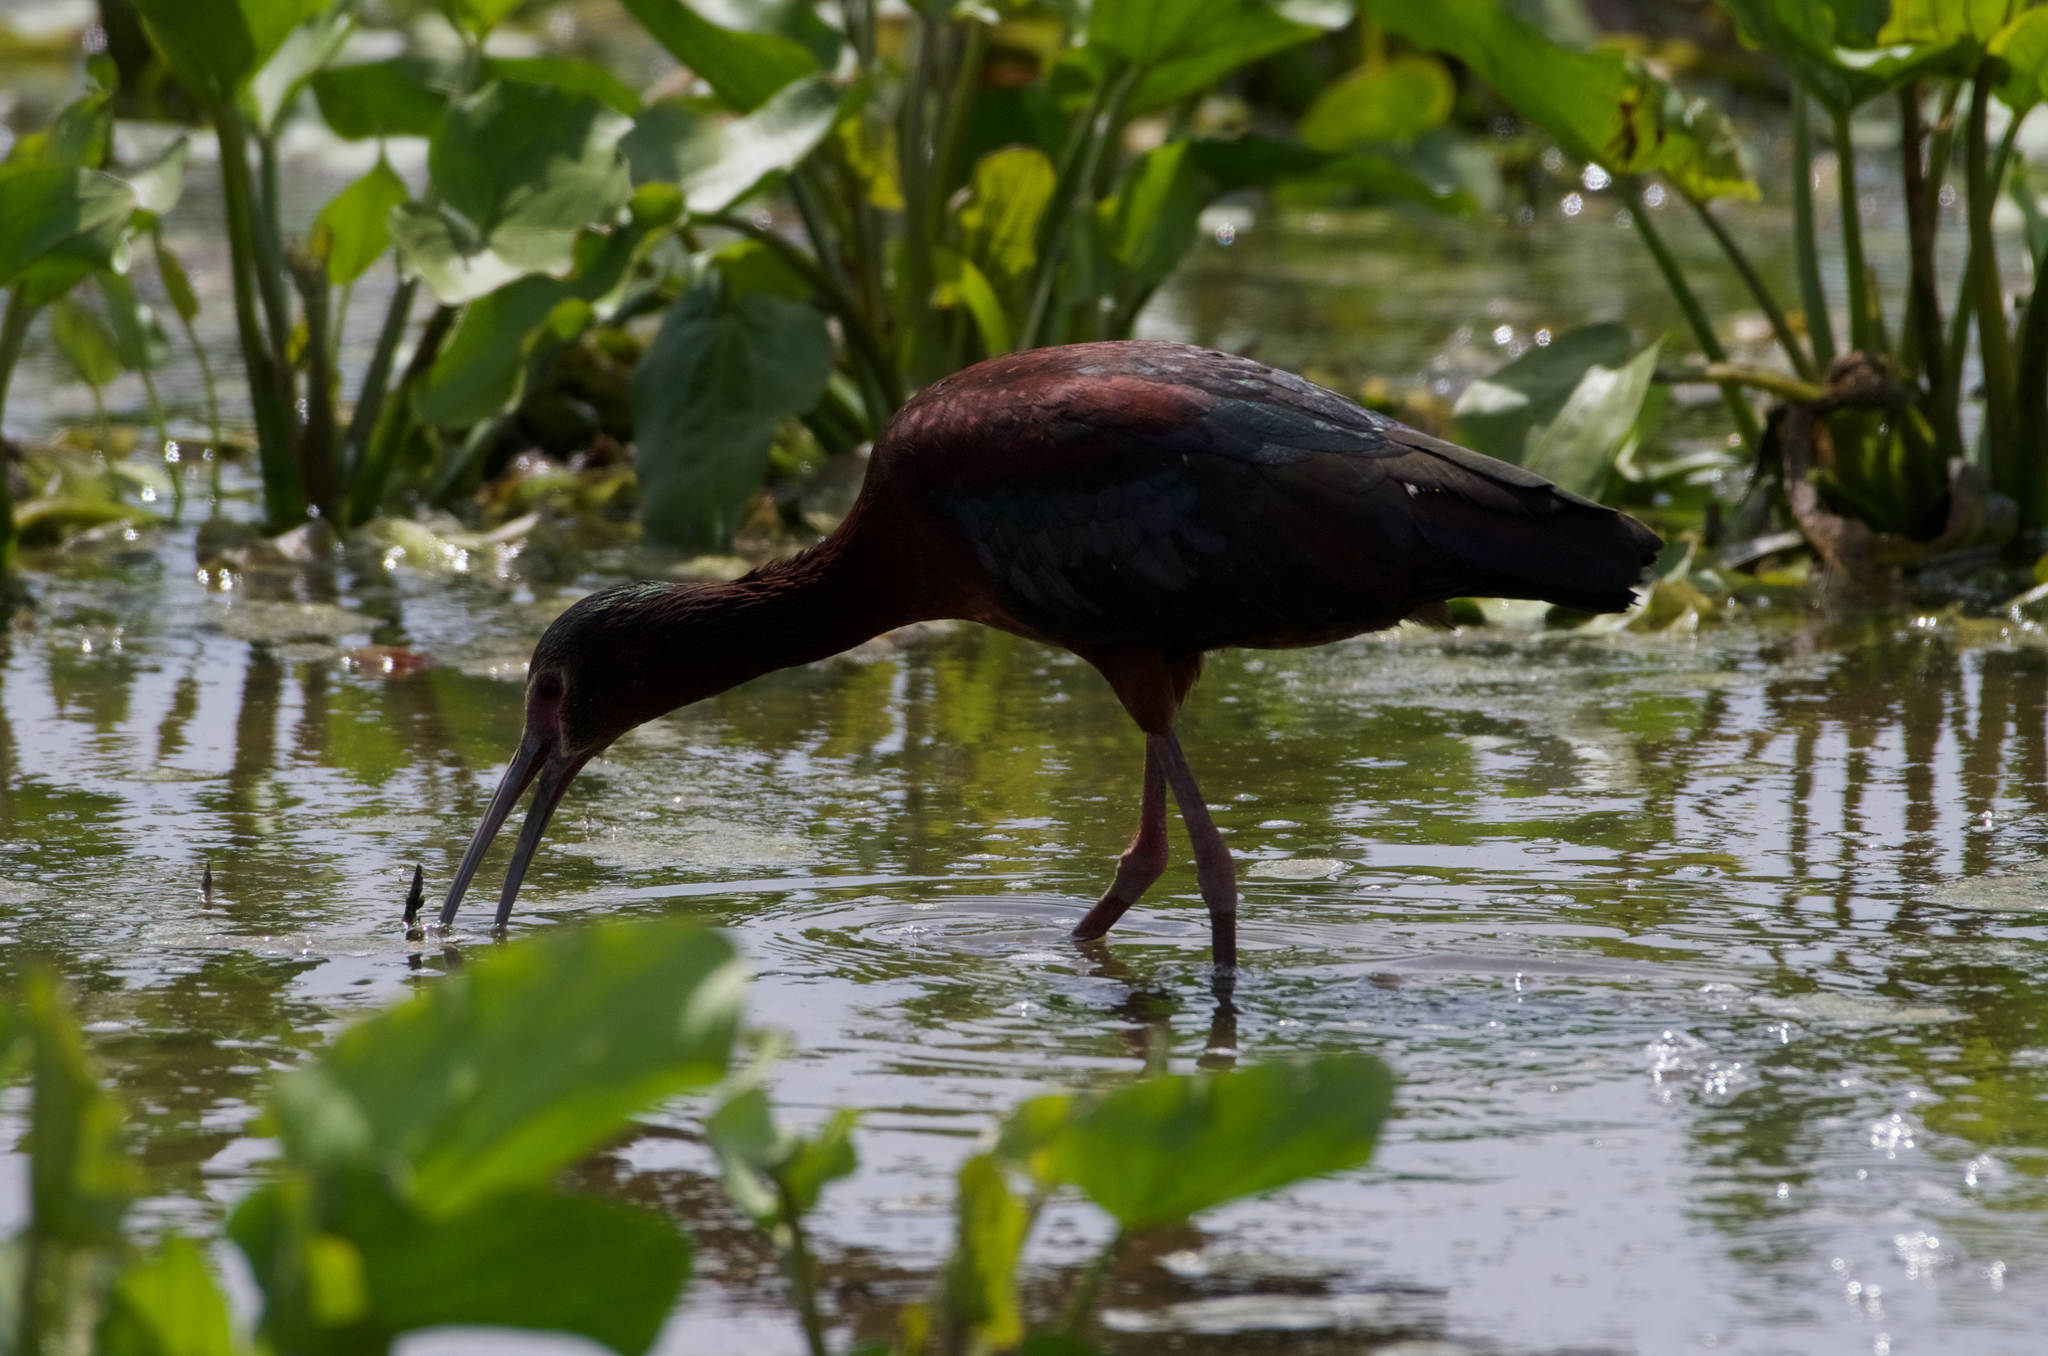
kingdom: Animalia
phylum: Chordata
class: Aves
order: Pelecaniformes
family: Threskiornithidae
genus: Plegadis
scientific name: Plegadis chihi
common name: White-faced ibis
